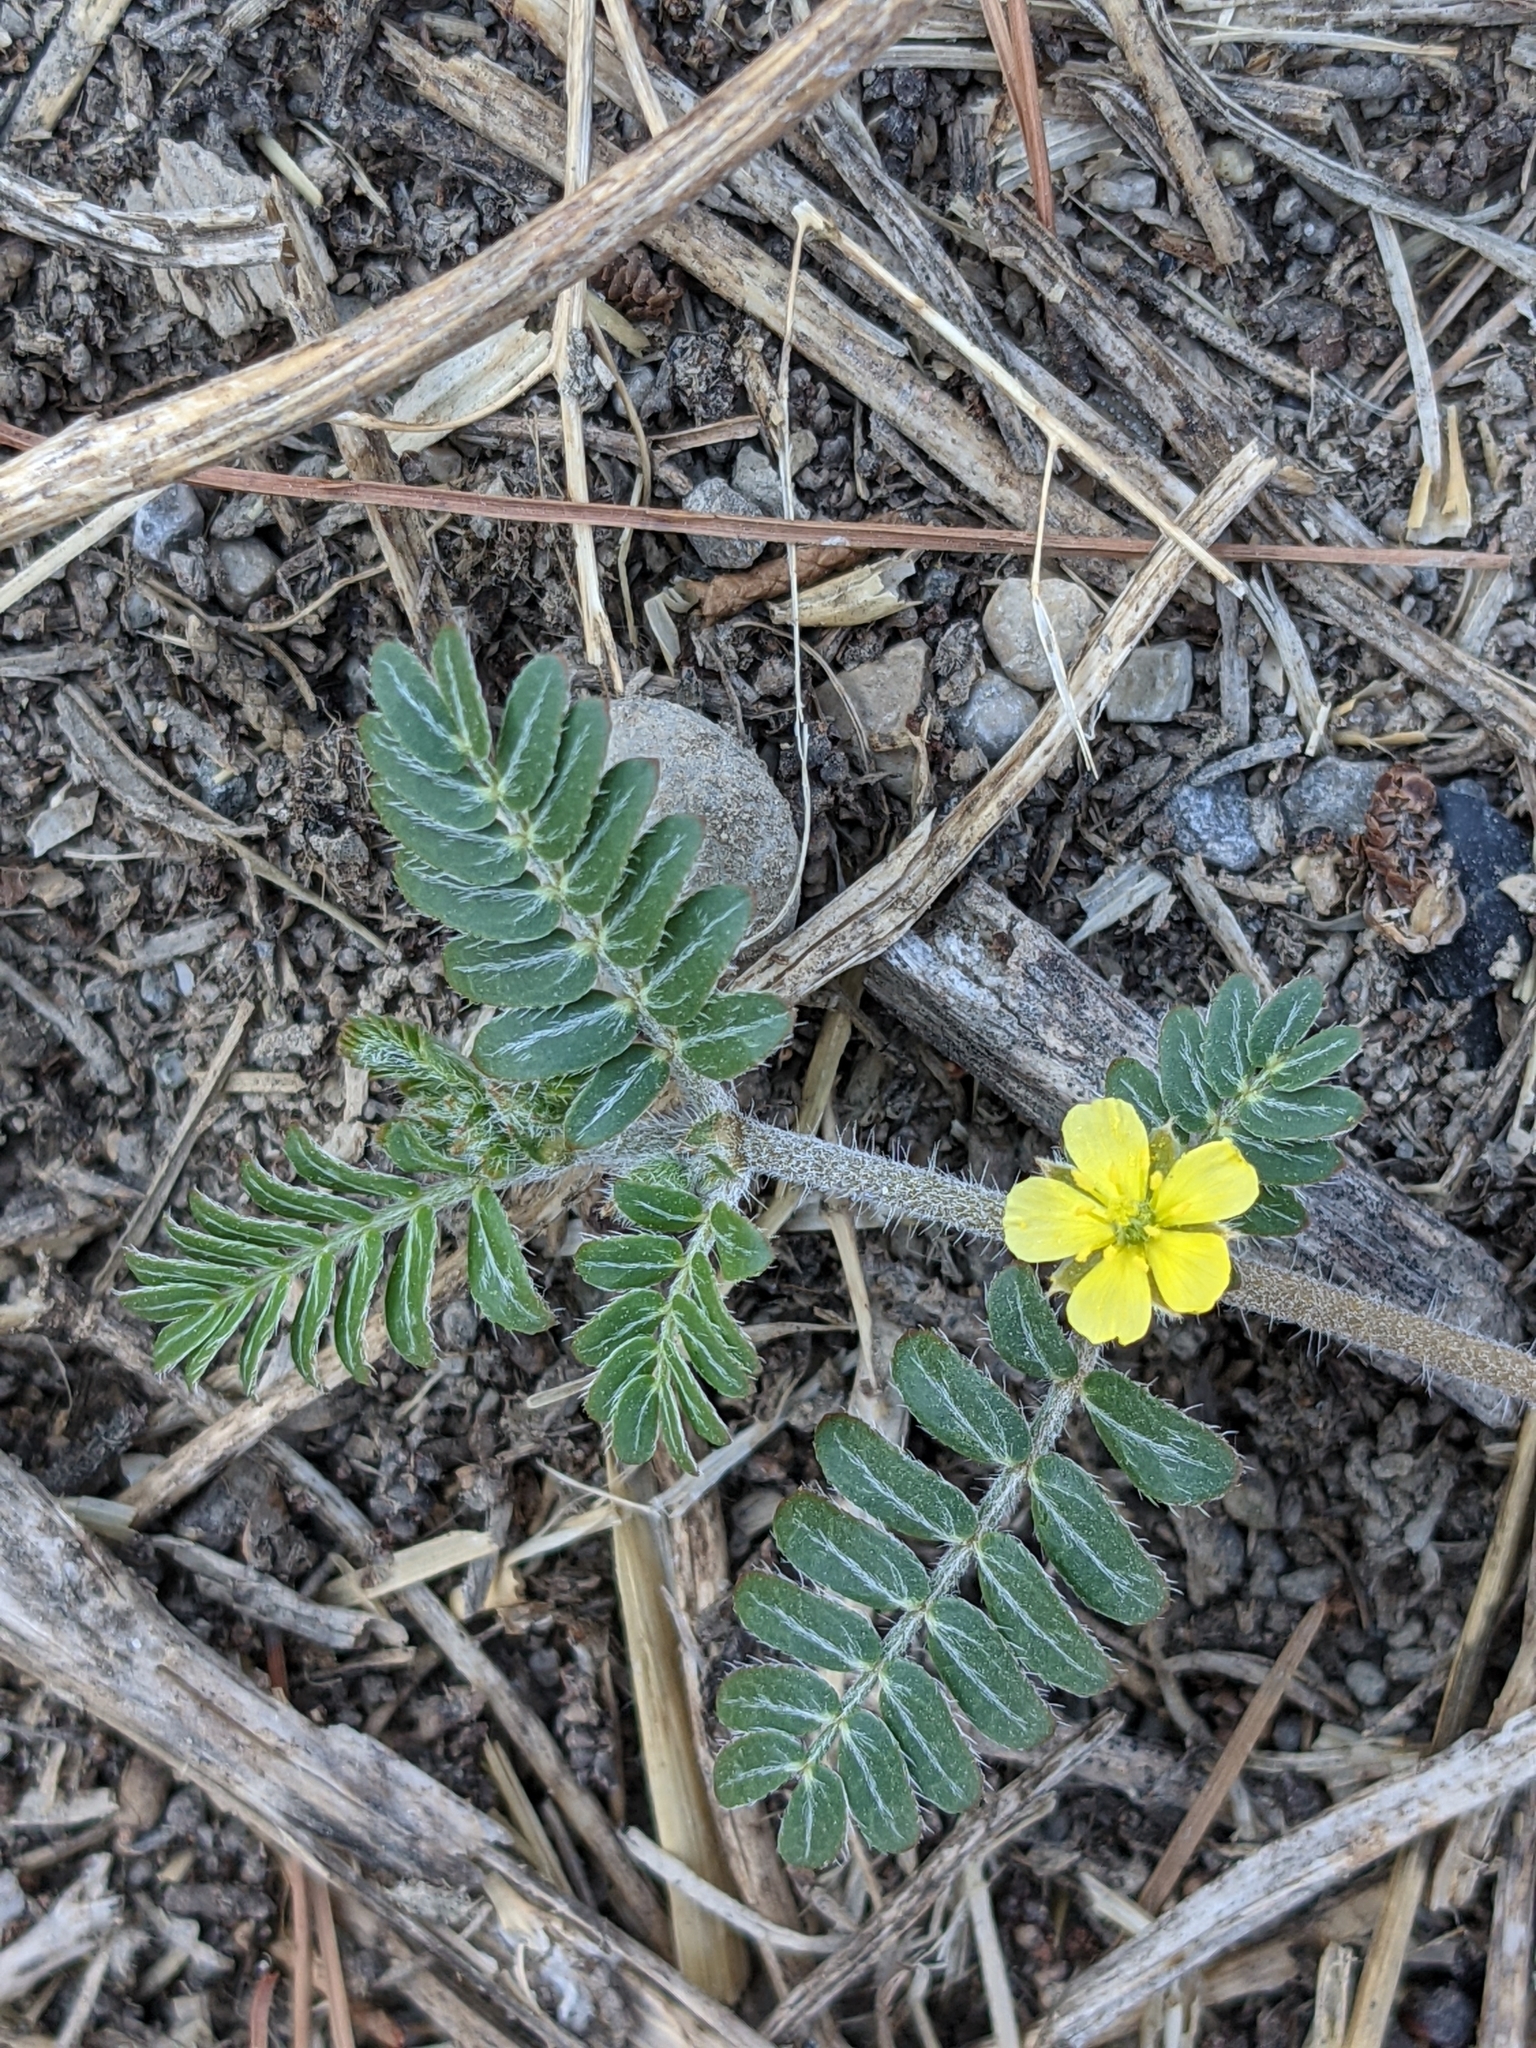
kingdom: Plantae
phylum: Tracheophyta
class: Magnoliopsida
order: Zygophyllales
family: Zygophyllaceae
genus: Tribulus
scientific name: Tribulus terrestris
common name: Puncturevine
